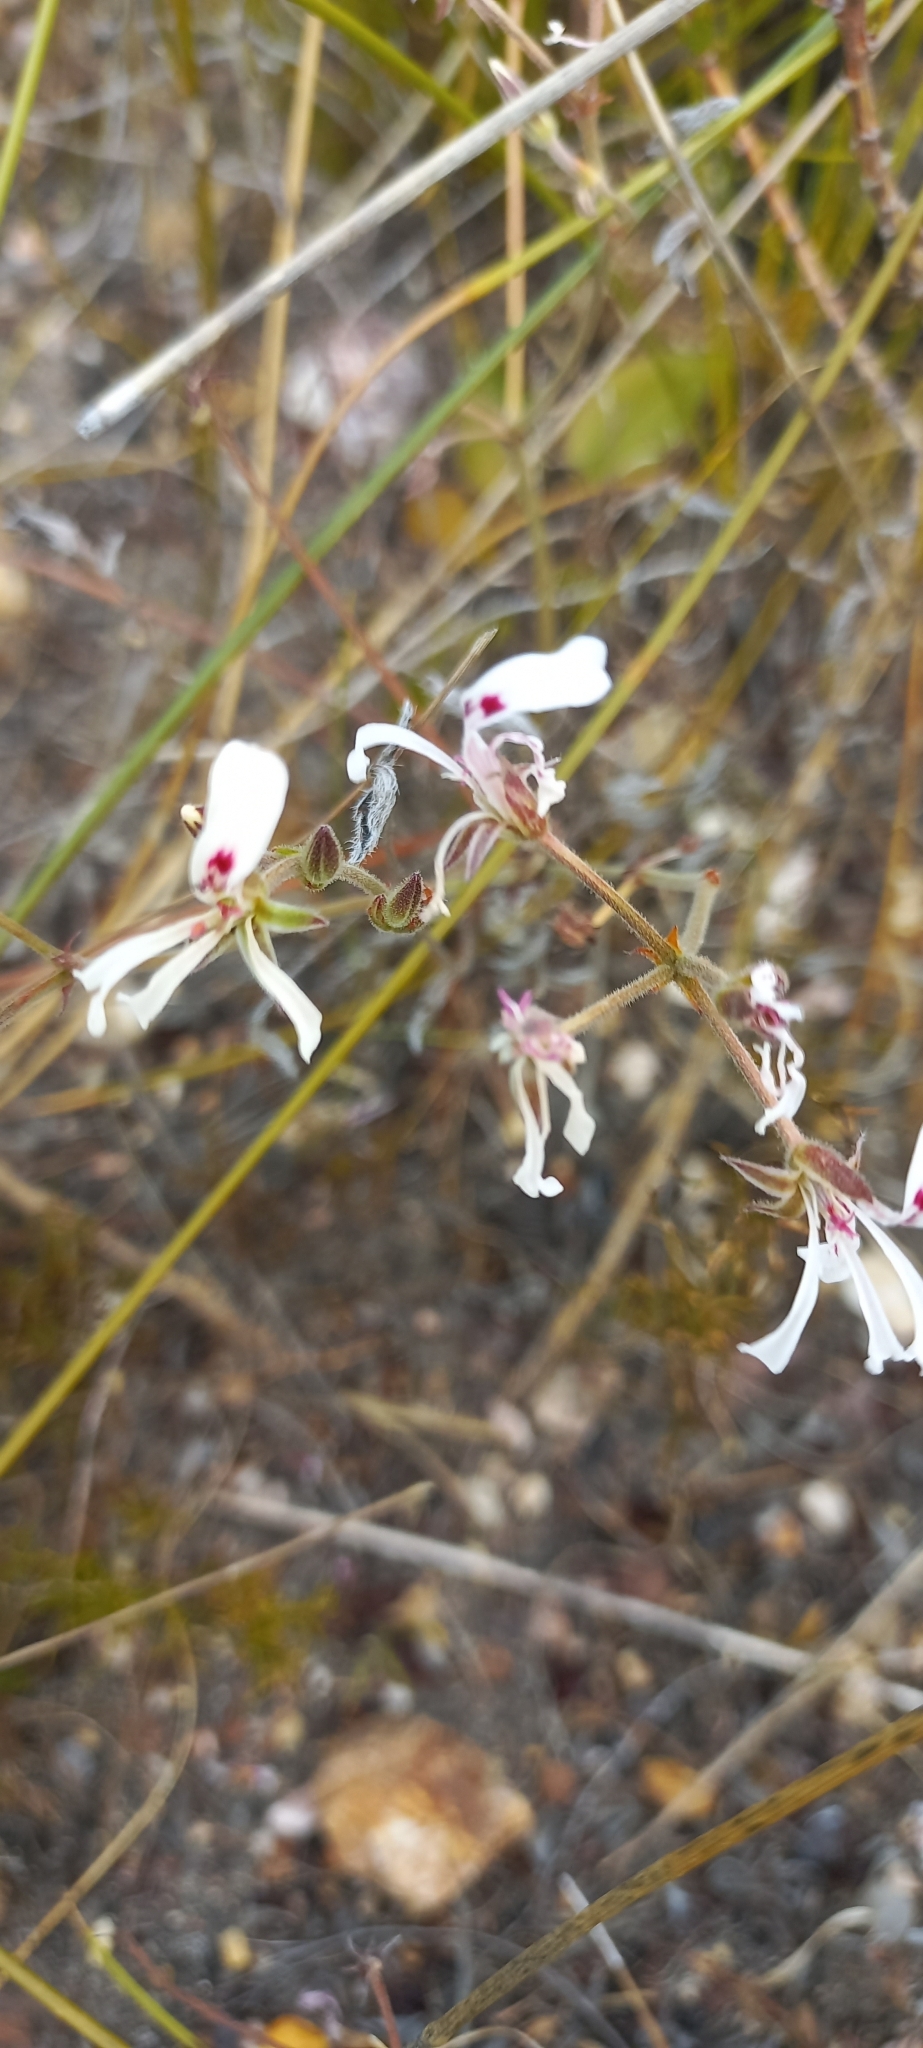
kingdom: Plantae
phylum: Tracheophyta
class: Magnoliopsida
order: Geraniales
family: Geraniaceae
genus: Pelargonium
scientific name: Pelargonium pinnatum
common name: Pinnated pelargonium
